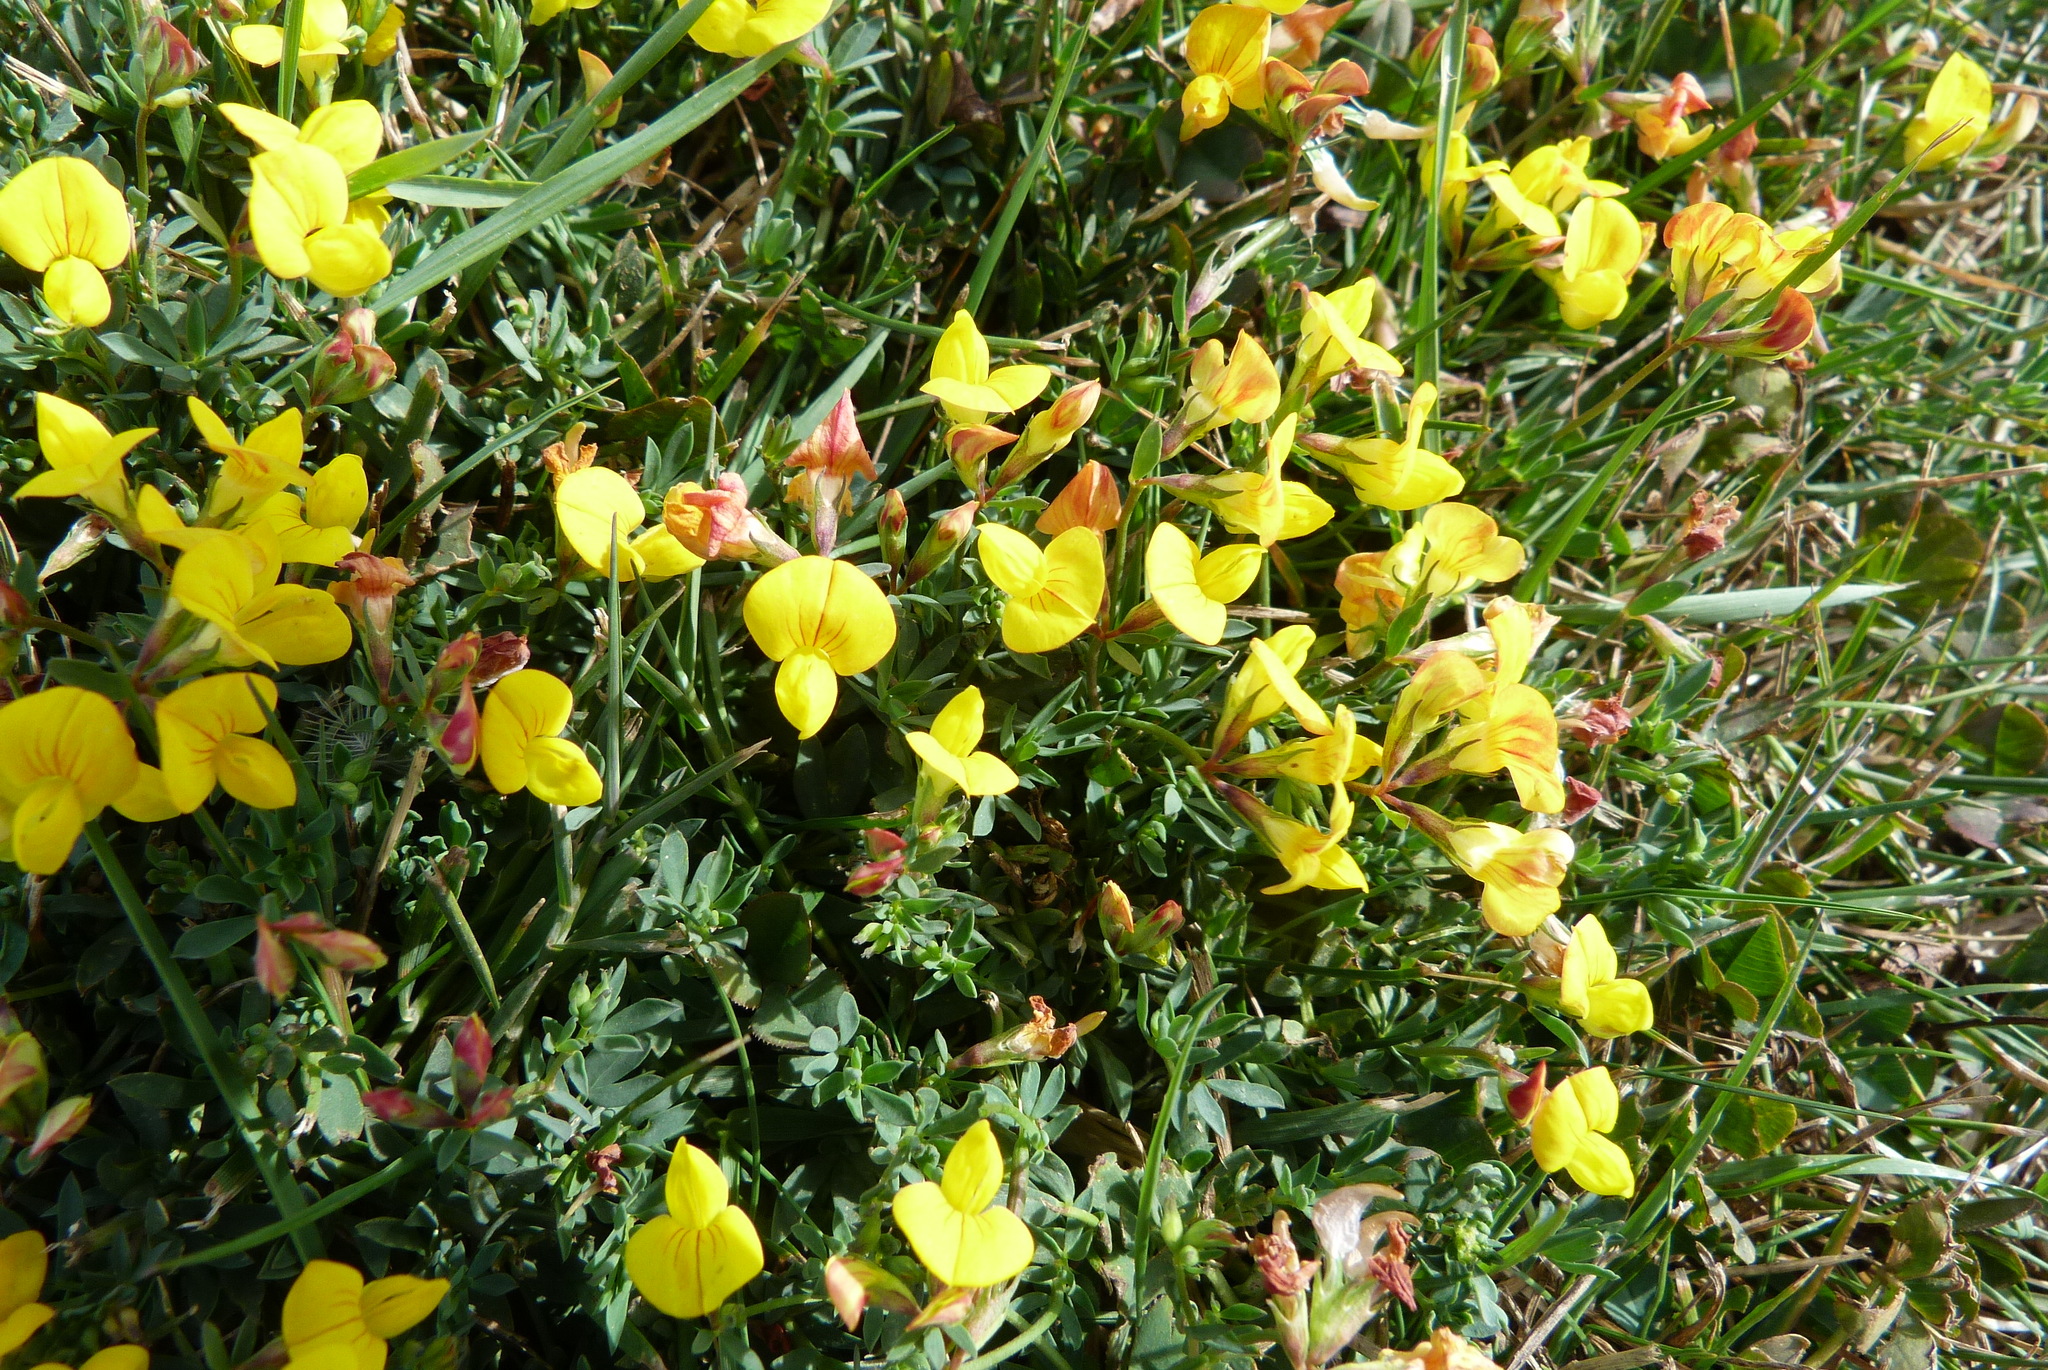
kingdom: Plantae
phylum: Tracheophyta
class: Magnoliopsida
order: Fabales
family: Fabaceae
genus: Lotus
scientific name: Lotus tenuis
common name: Narrow-leaved bird's-foot-trefoil
